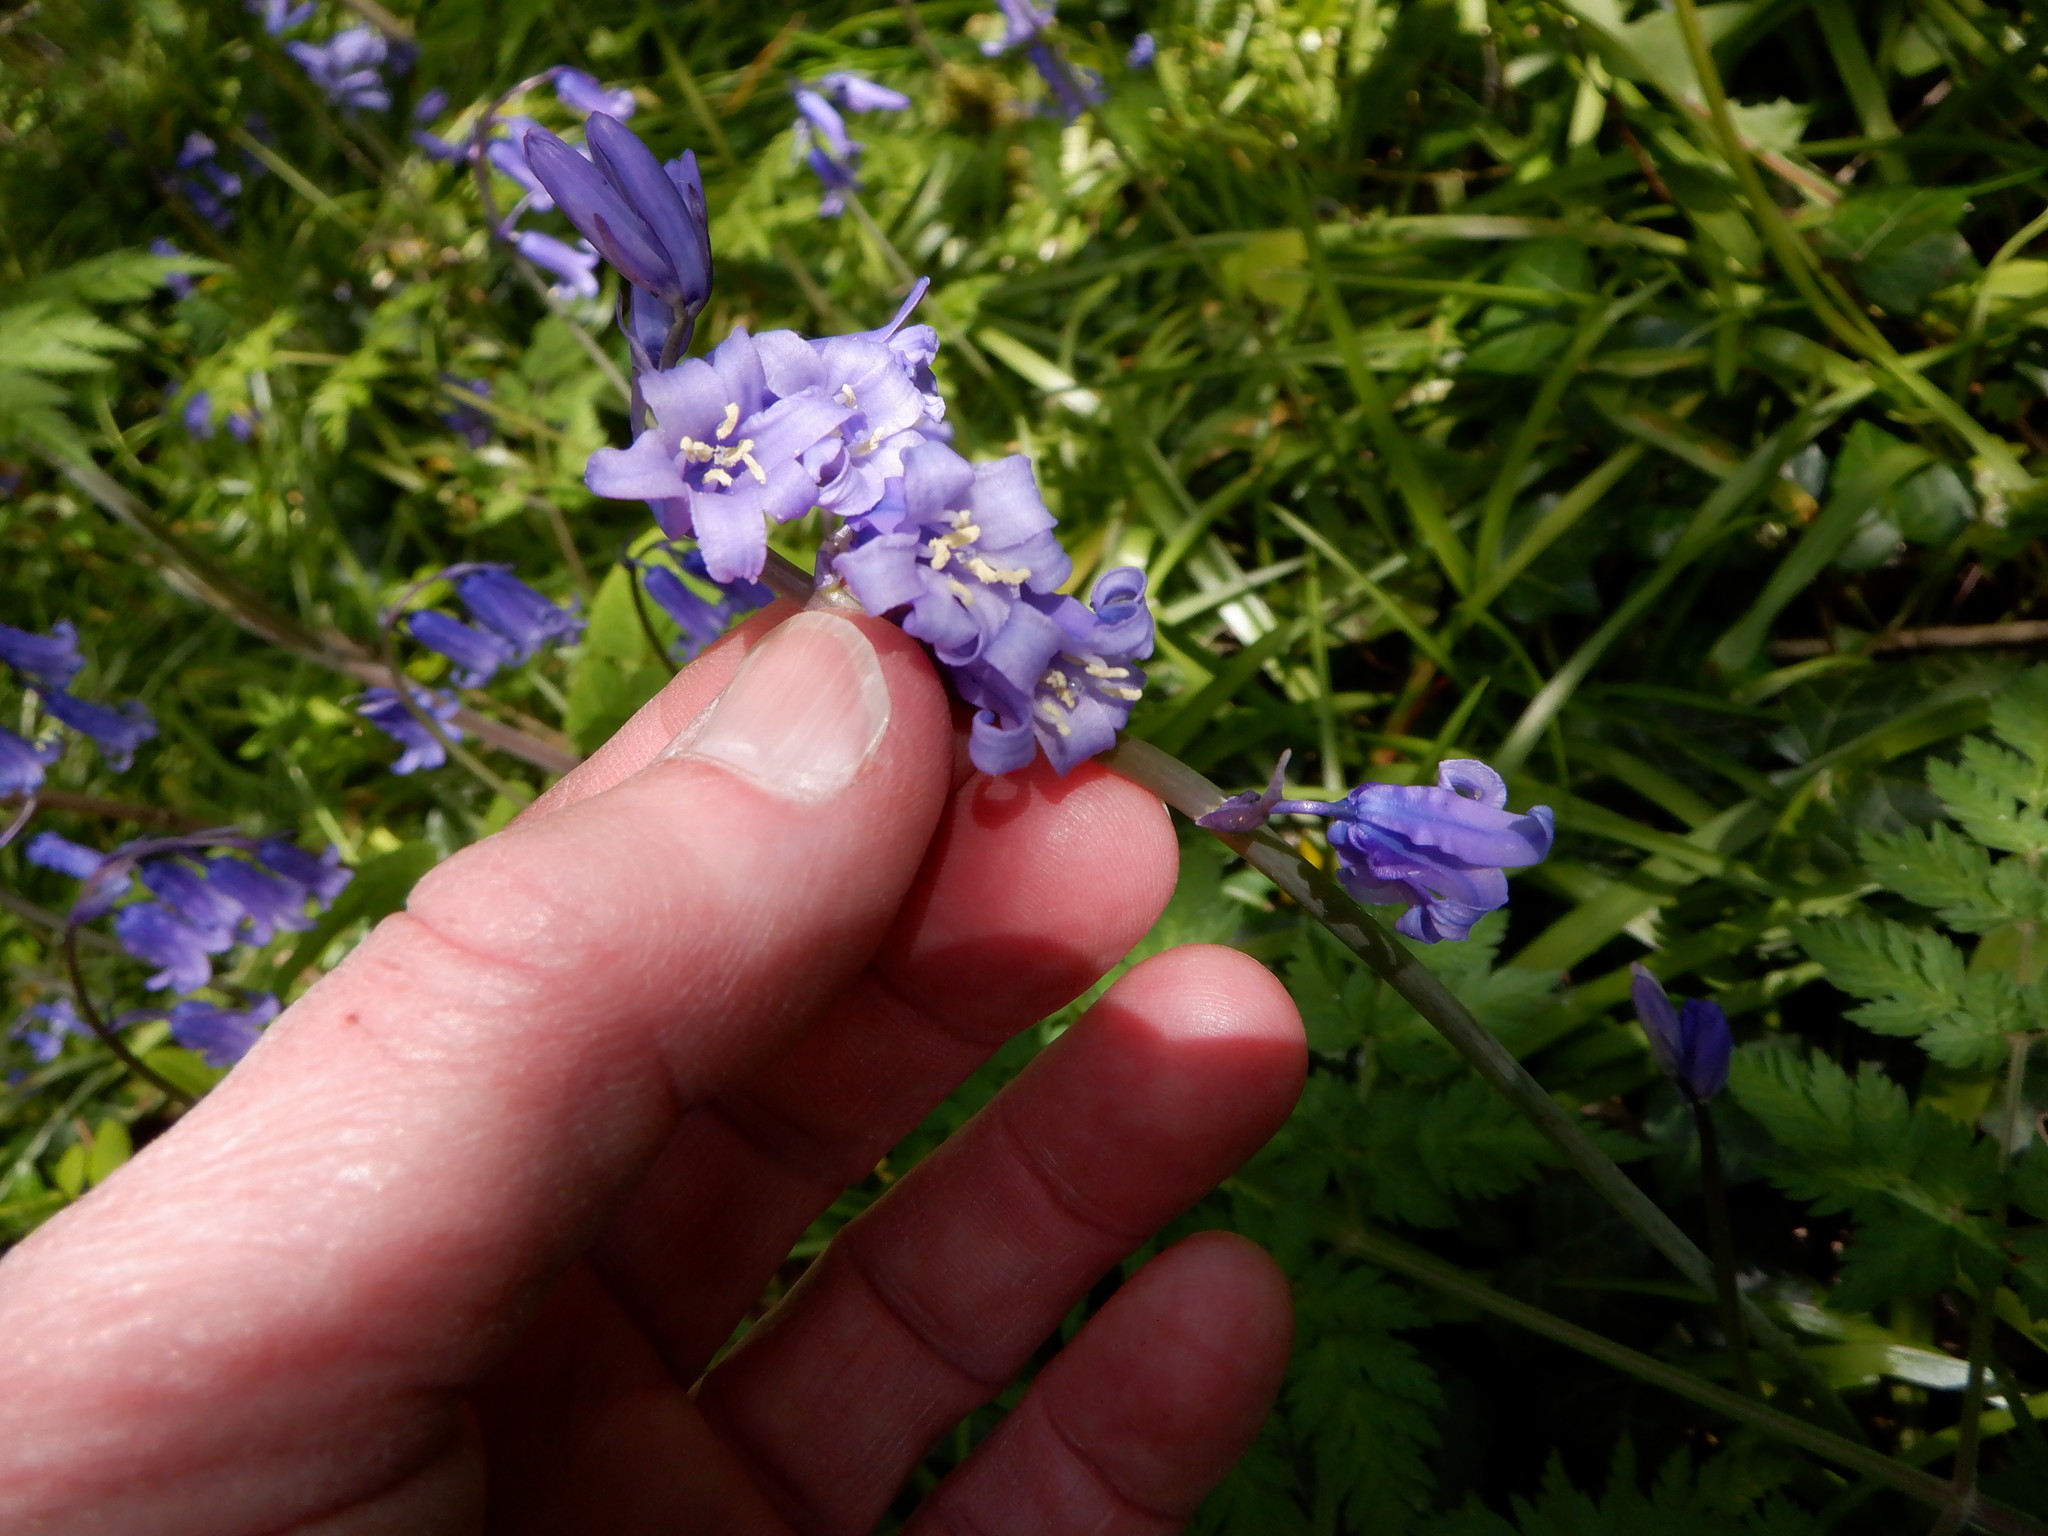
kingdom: Plantae
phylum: Tracheophyta
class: Liliopsida
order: Asparagales
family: Asparagaceae
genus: Hyacinthoides
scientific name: Hyacinthoides non-scripta
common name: Bluebell
